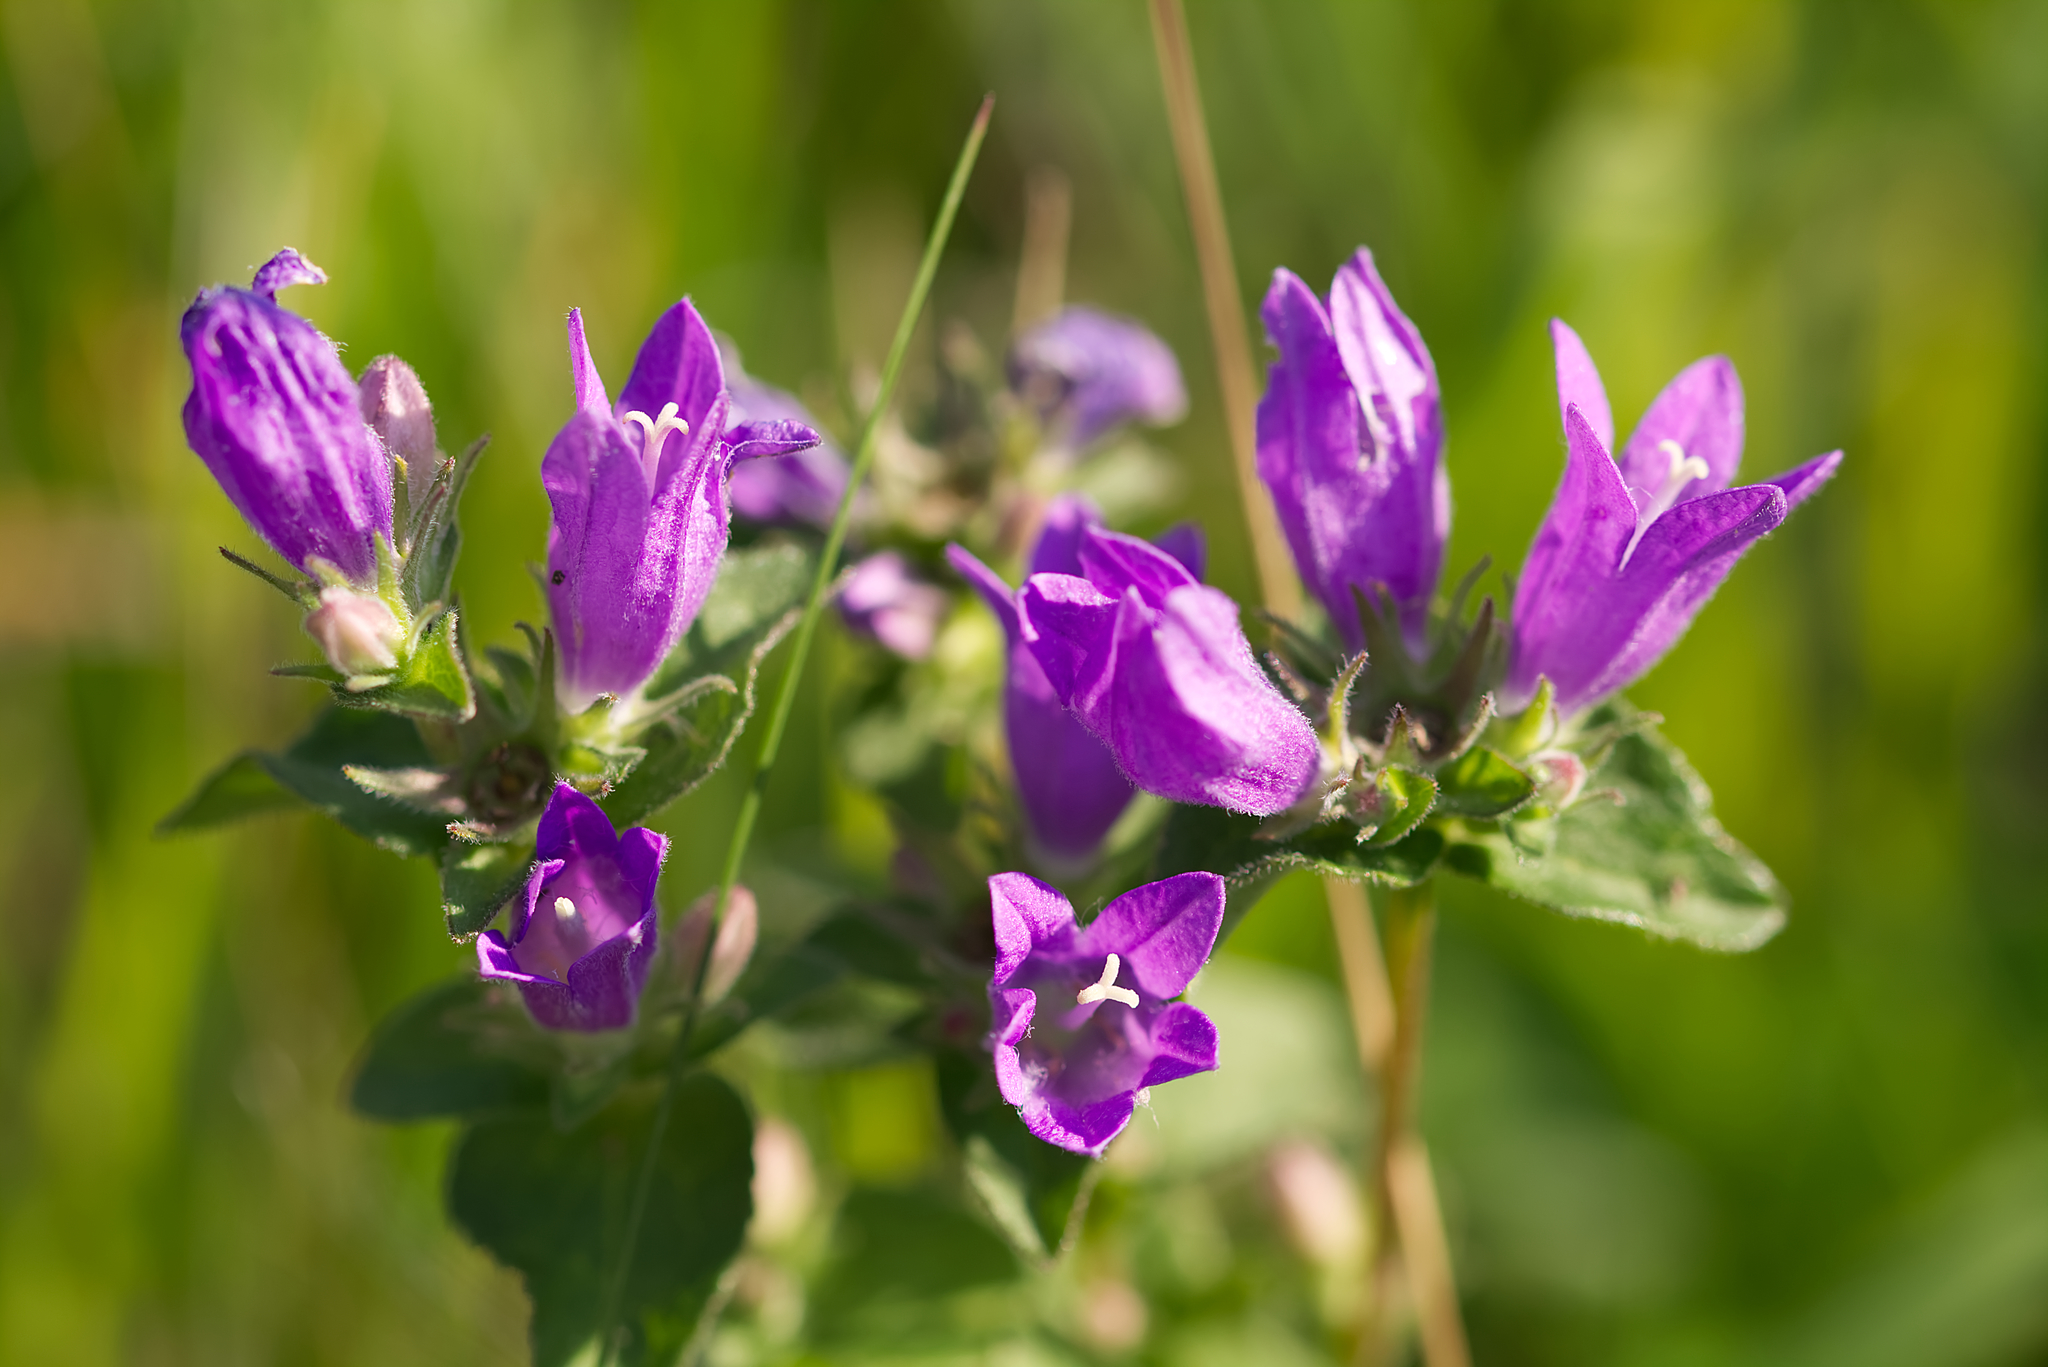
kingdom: Plantae
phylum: Tracheophyta
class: Magnoliopsida
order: Asterales
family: Campanulaceae
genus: Campanula
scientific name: Campanula glomerata
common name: Clustered bellflower
